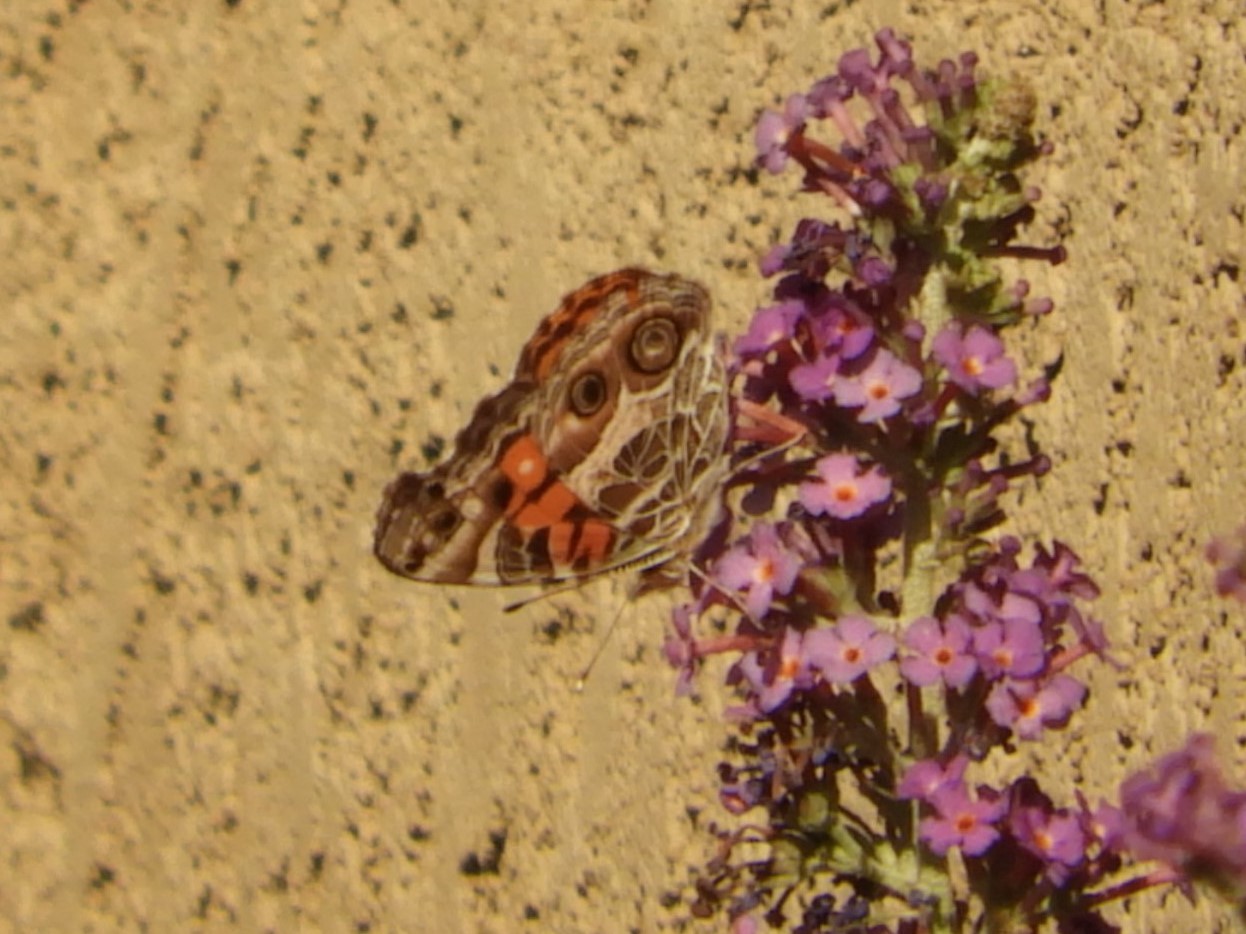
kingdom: Animalia
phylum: Arthropoda
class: Insecta
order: Lepidoptera
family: Nymphalidae
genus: Vanessa
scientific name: Vanessa virginiensis
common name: American lady
